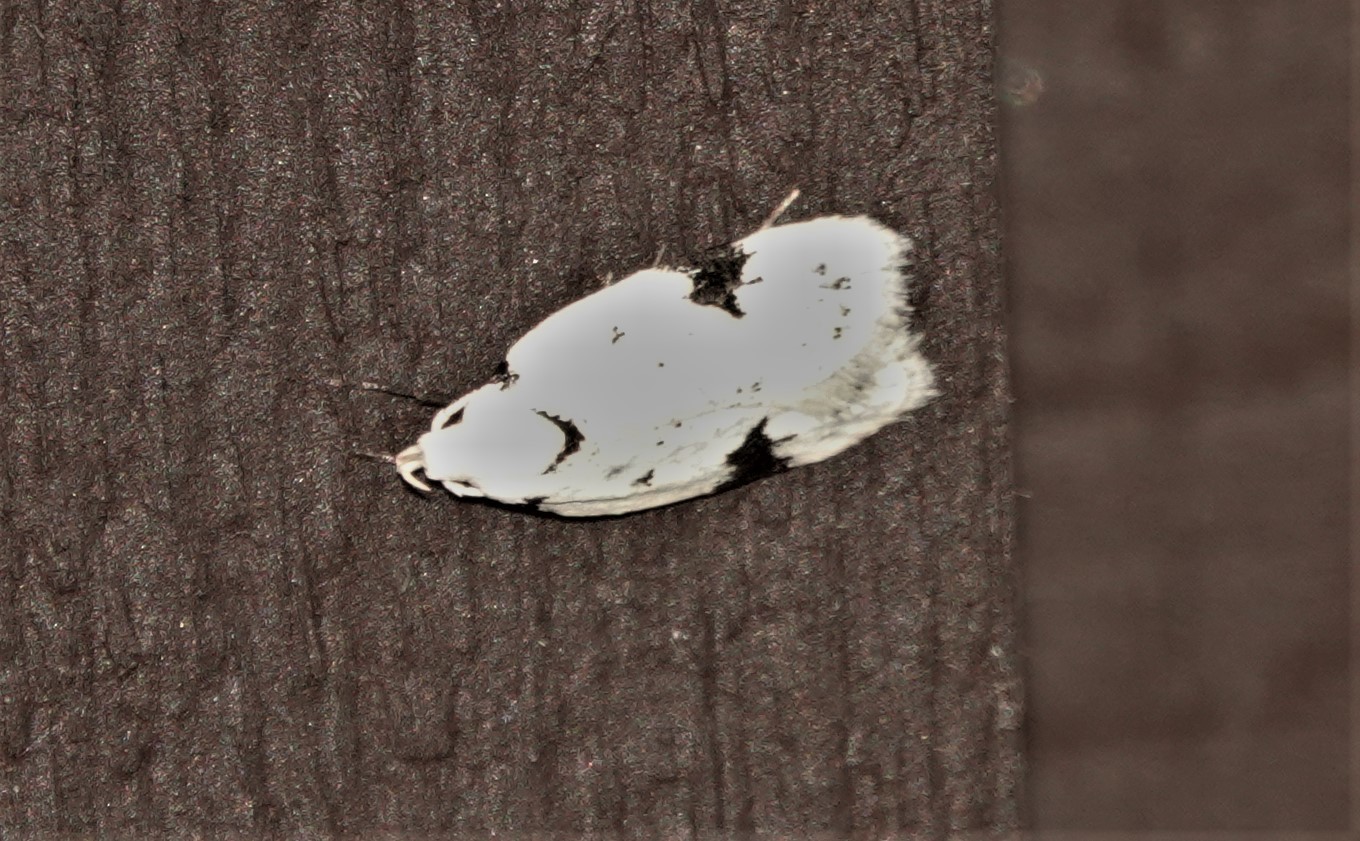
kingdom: Animalia
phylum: Arthropoda
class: Insecta
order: Lepidoptera
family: Oecophoridae
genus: Inga
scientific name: Inga sparsiciliella
